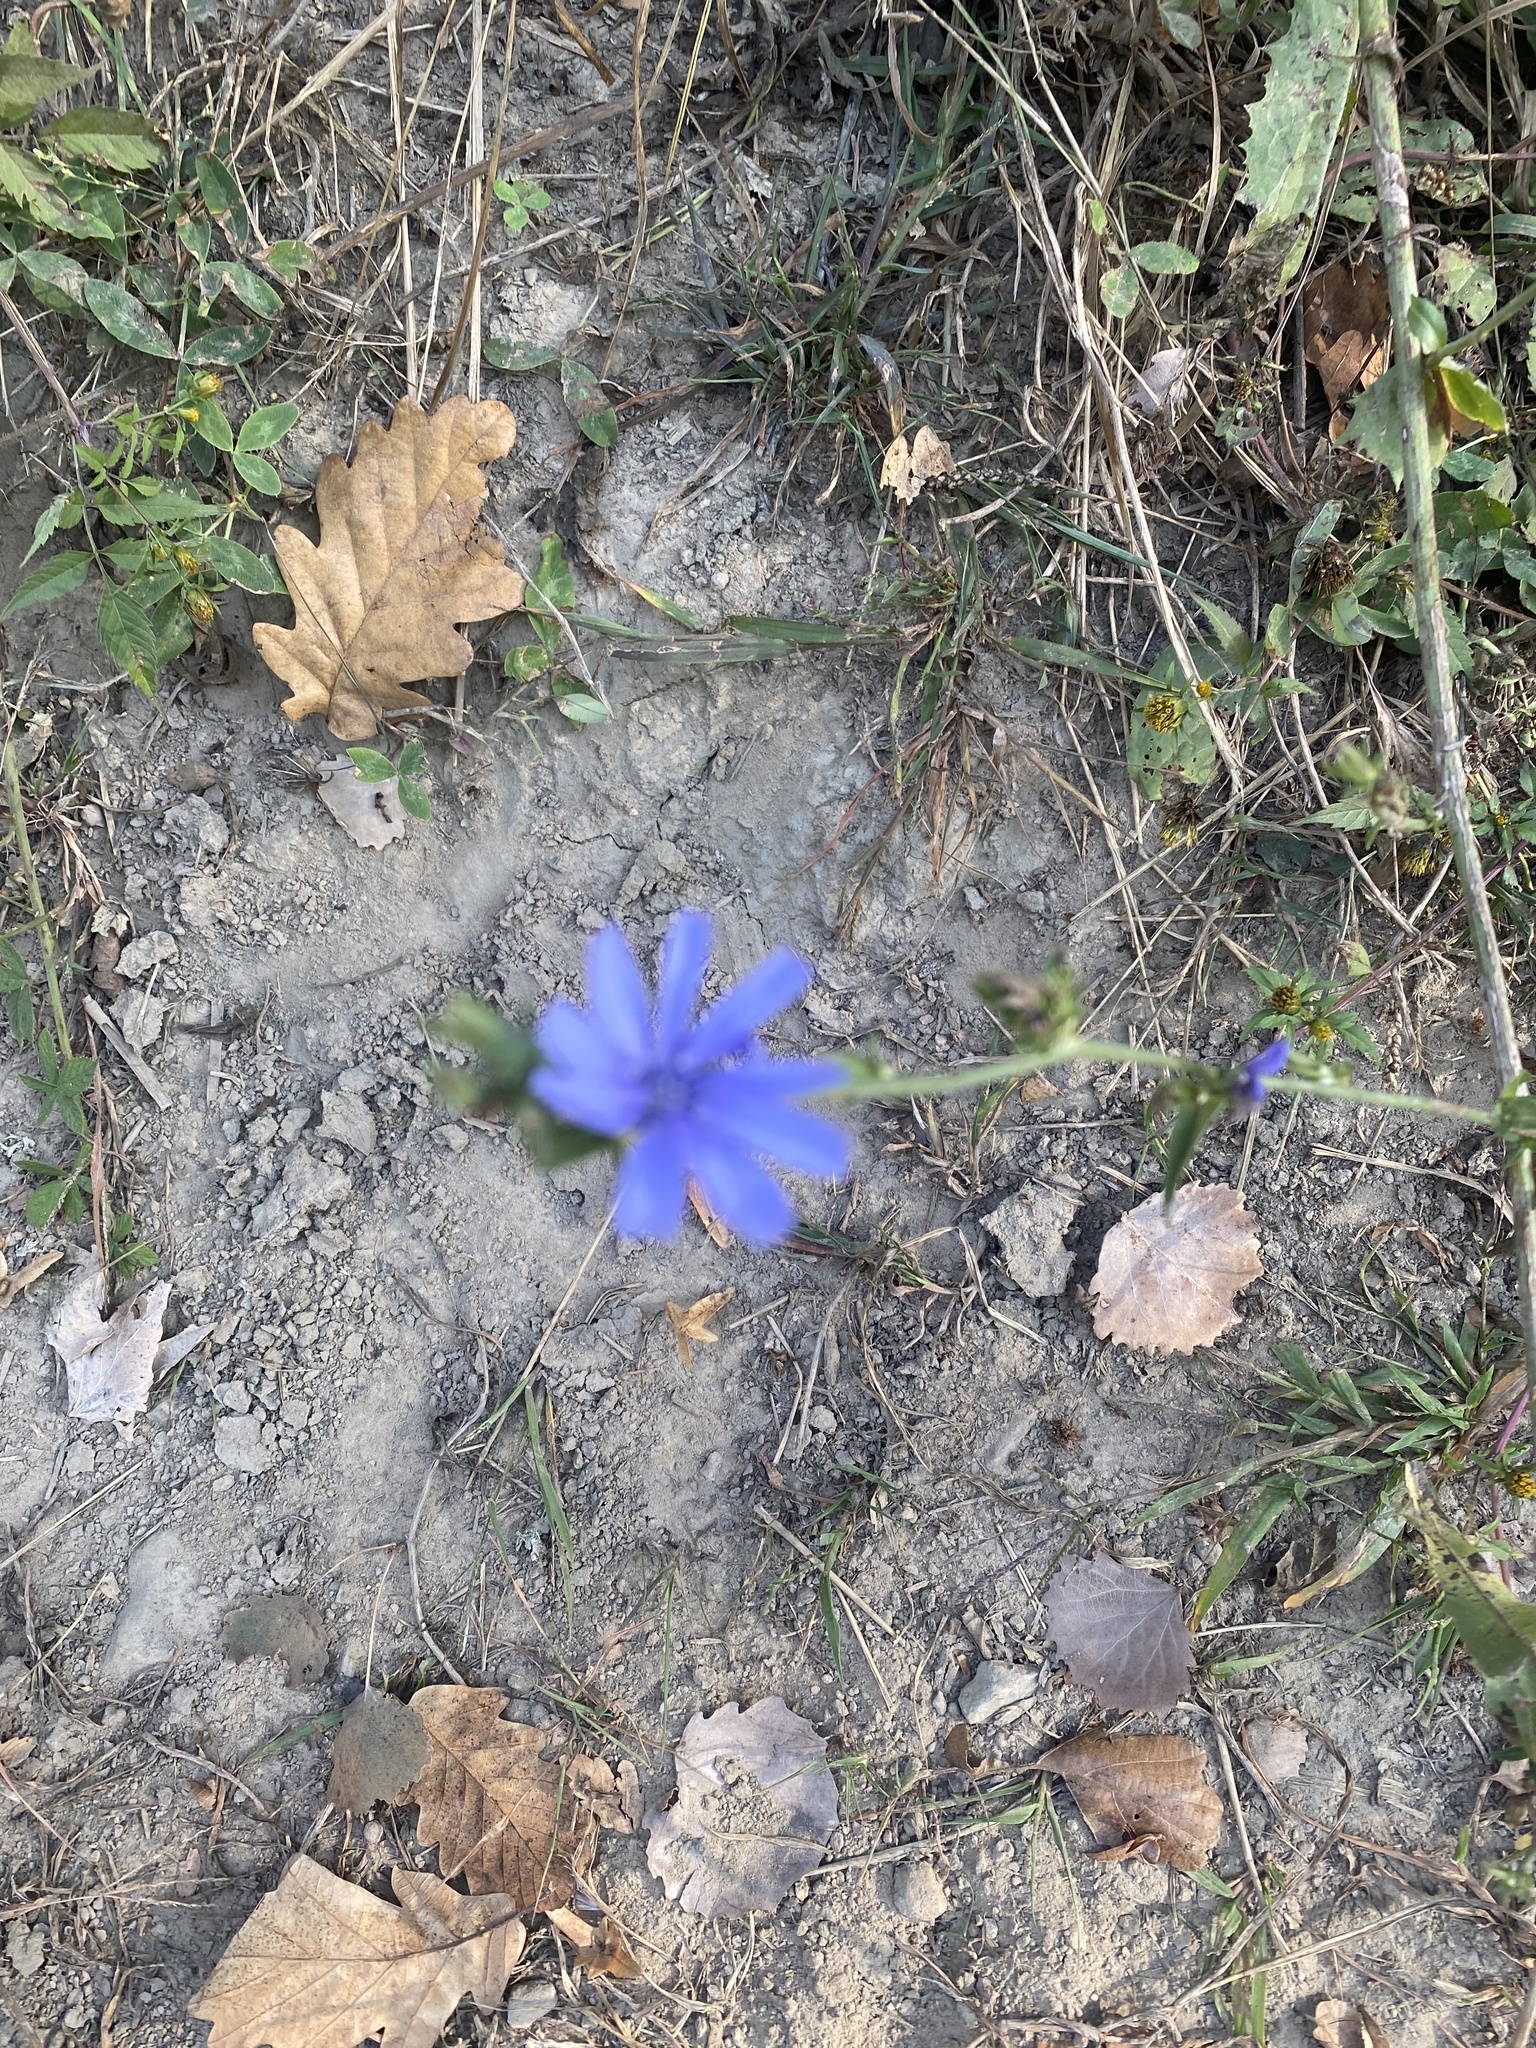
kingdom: Plantae
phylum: Tracheophyta
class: Magnoliopsida
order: Asterales
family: Asteraceae
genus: Cichorium
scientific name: Cichorium intybus
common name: Chicory
